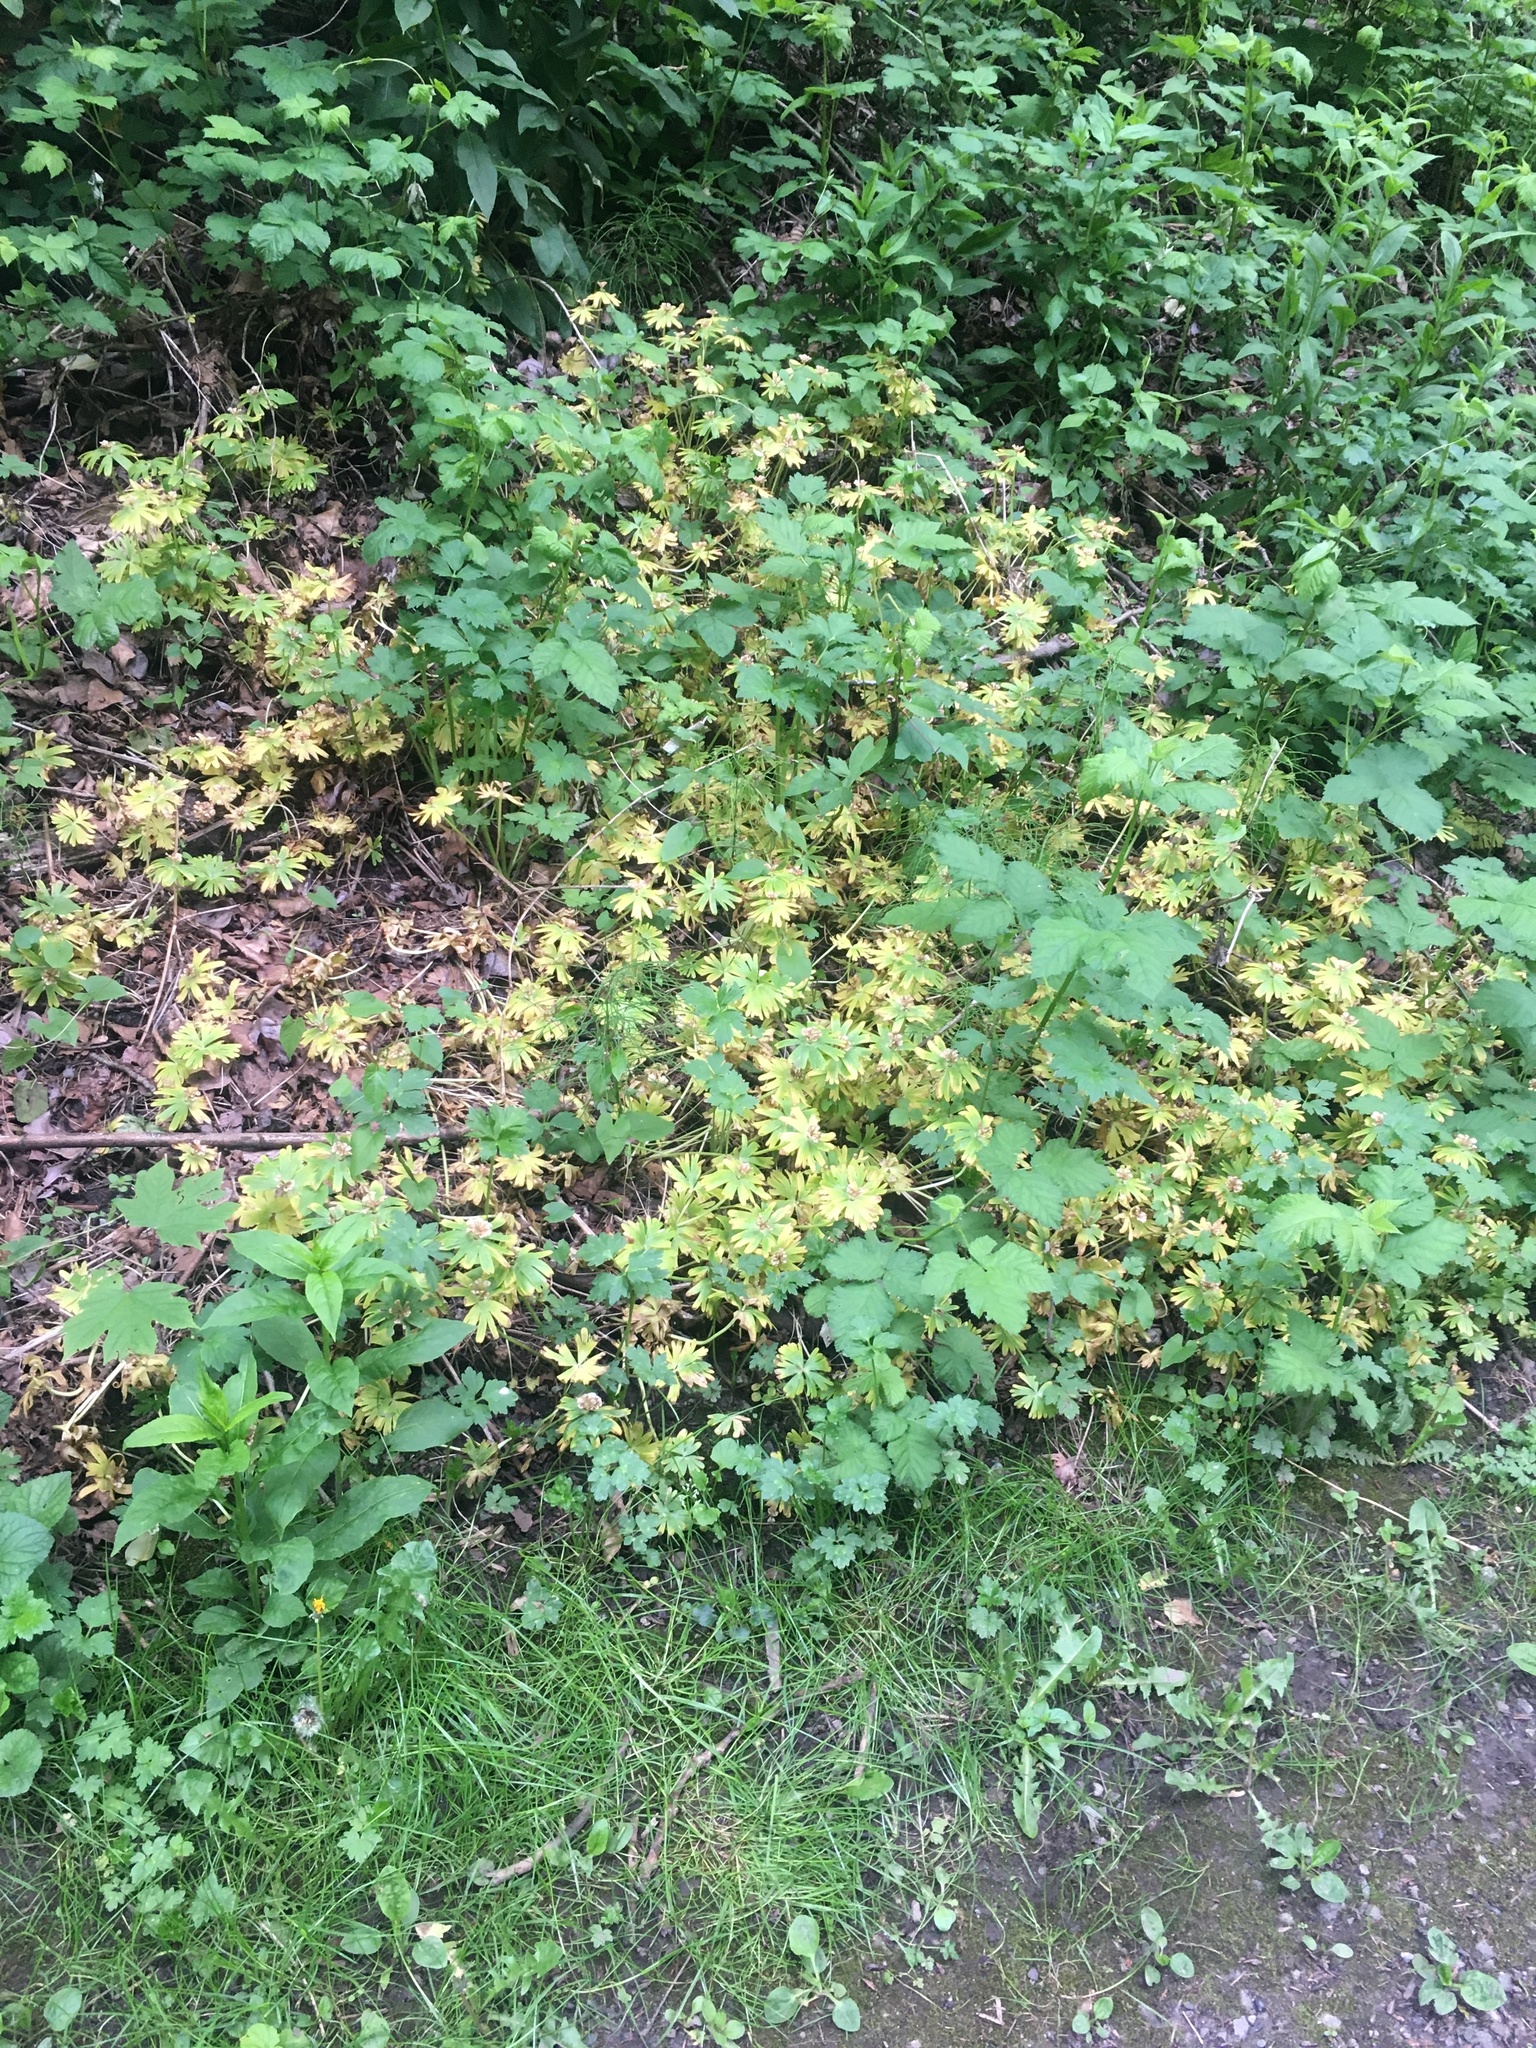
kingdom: Plantae
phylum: Tracheophyta
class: Magnoliopsida
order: Ranunculales
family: Ranunculaceae
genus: Eranthis
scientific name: Eranthis hyemalis
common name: Winter aconite
